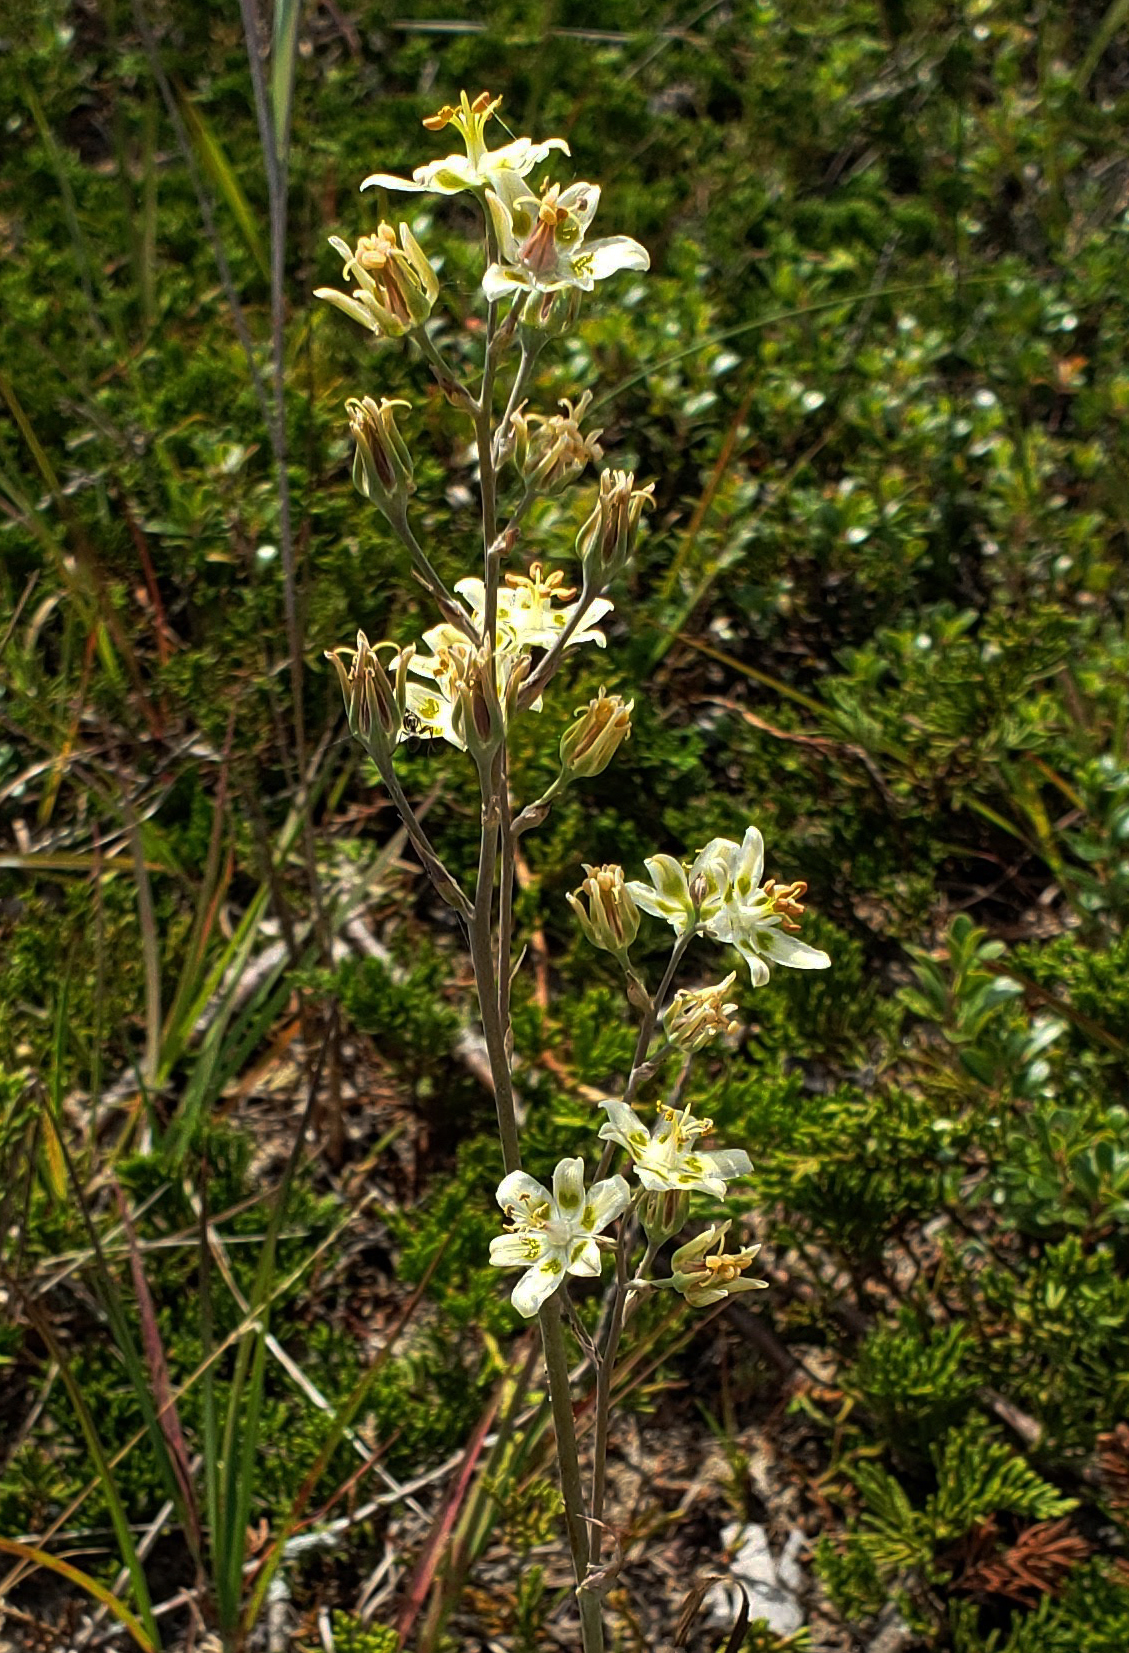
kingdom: Plantae
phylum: Tracheophyta
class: Liliopsida
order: Liliales
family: Melanthiaceae
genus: Anticlea
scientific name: Anticlea elegans
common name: Mountain death camas
